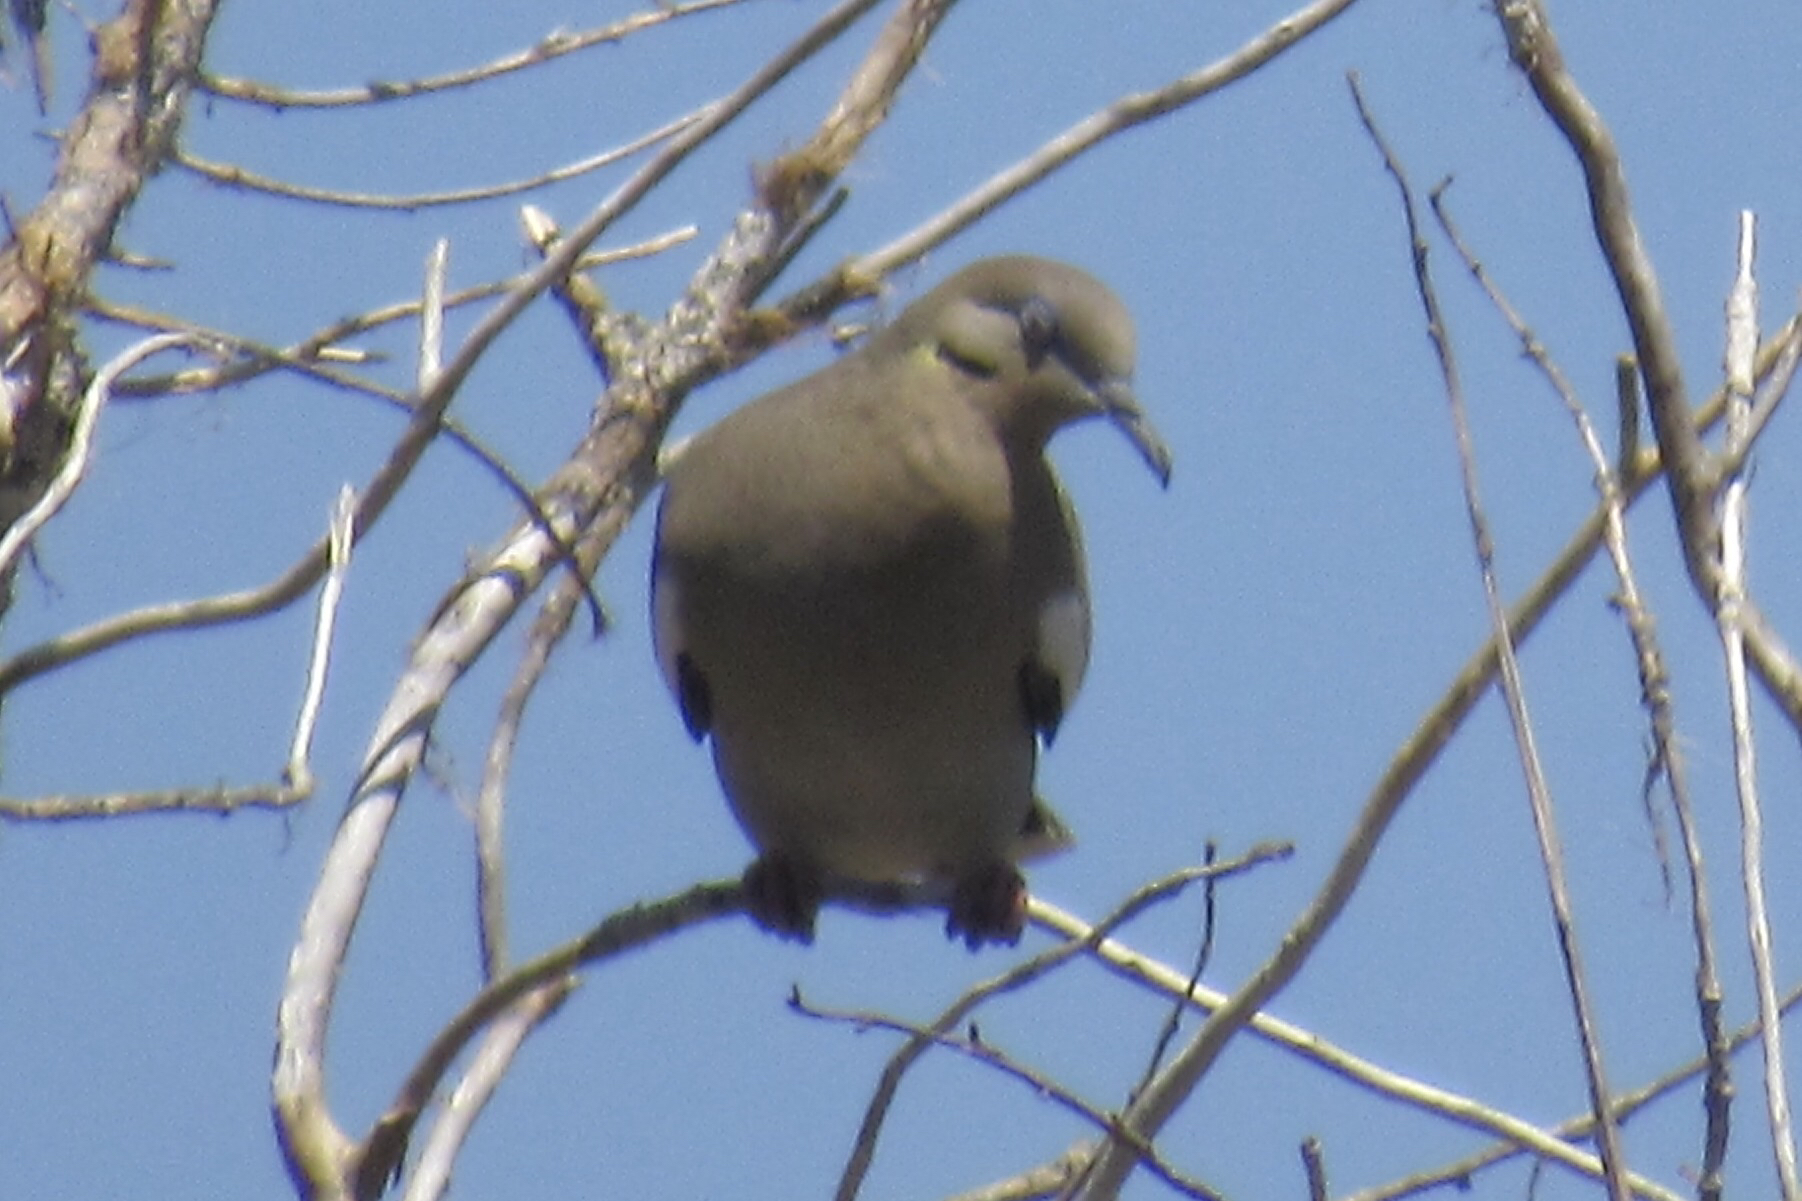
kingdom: Animalia
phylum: Chordata
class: Aves
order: Columbiformes
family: Columbidae
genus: Zenaida
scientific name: Zenaida asiatica
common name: White-winged dove
